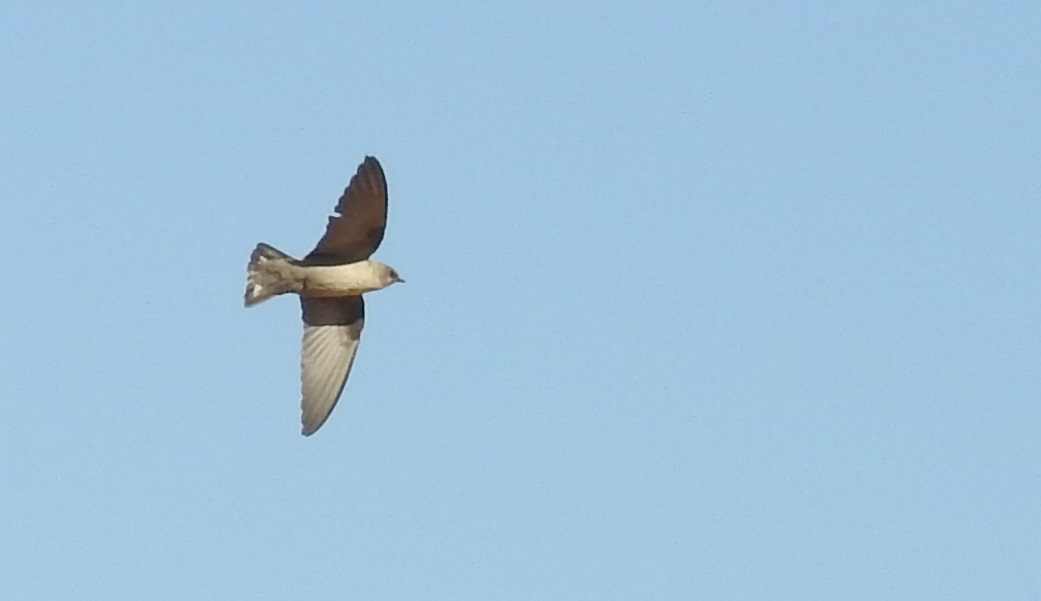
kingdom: Animalia
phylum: Chordata
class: Aves
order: Passeriformes
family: Hirundinidae
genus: Ptyonoprogne
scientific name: Ptyonoprogne fuligula
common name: Rock martin
